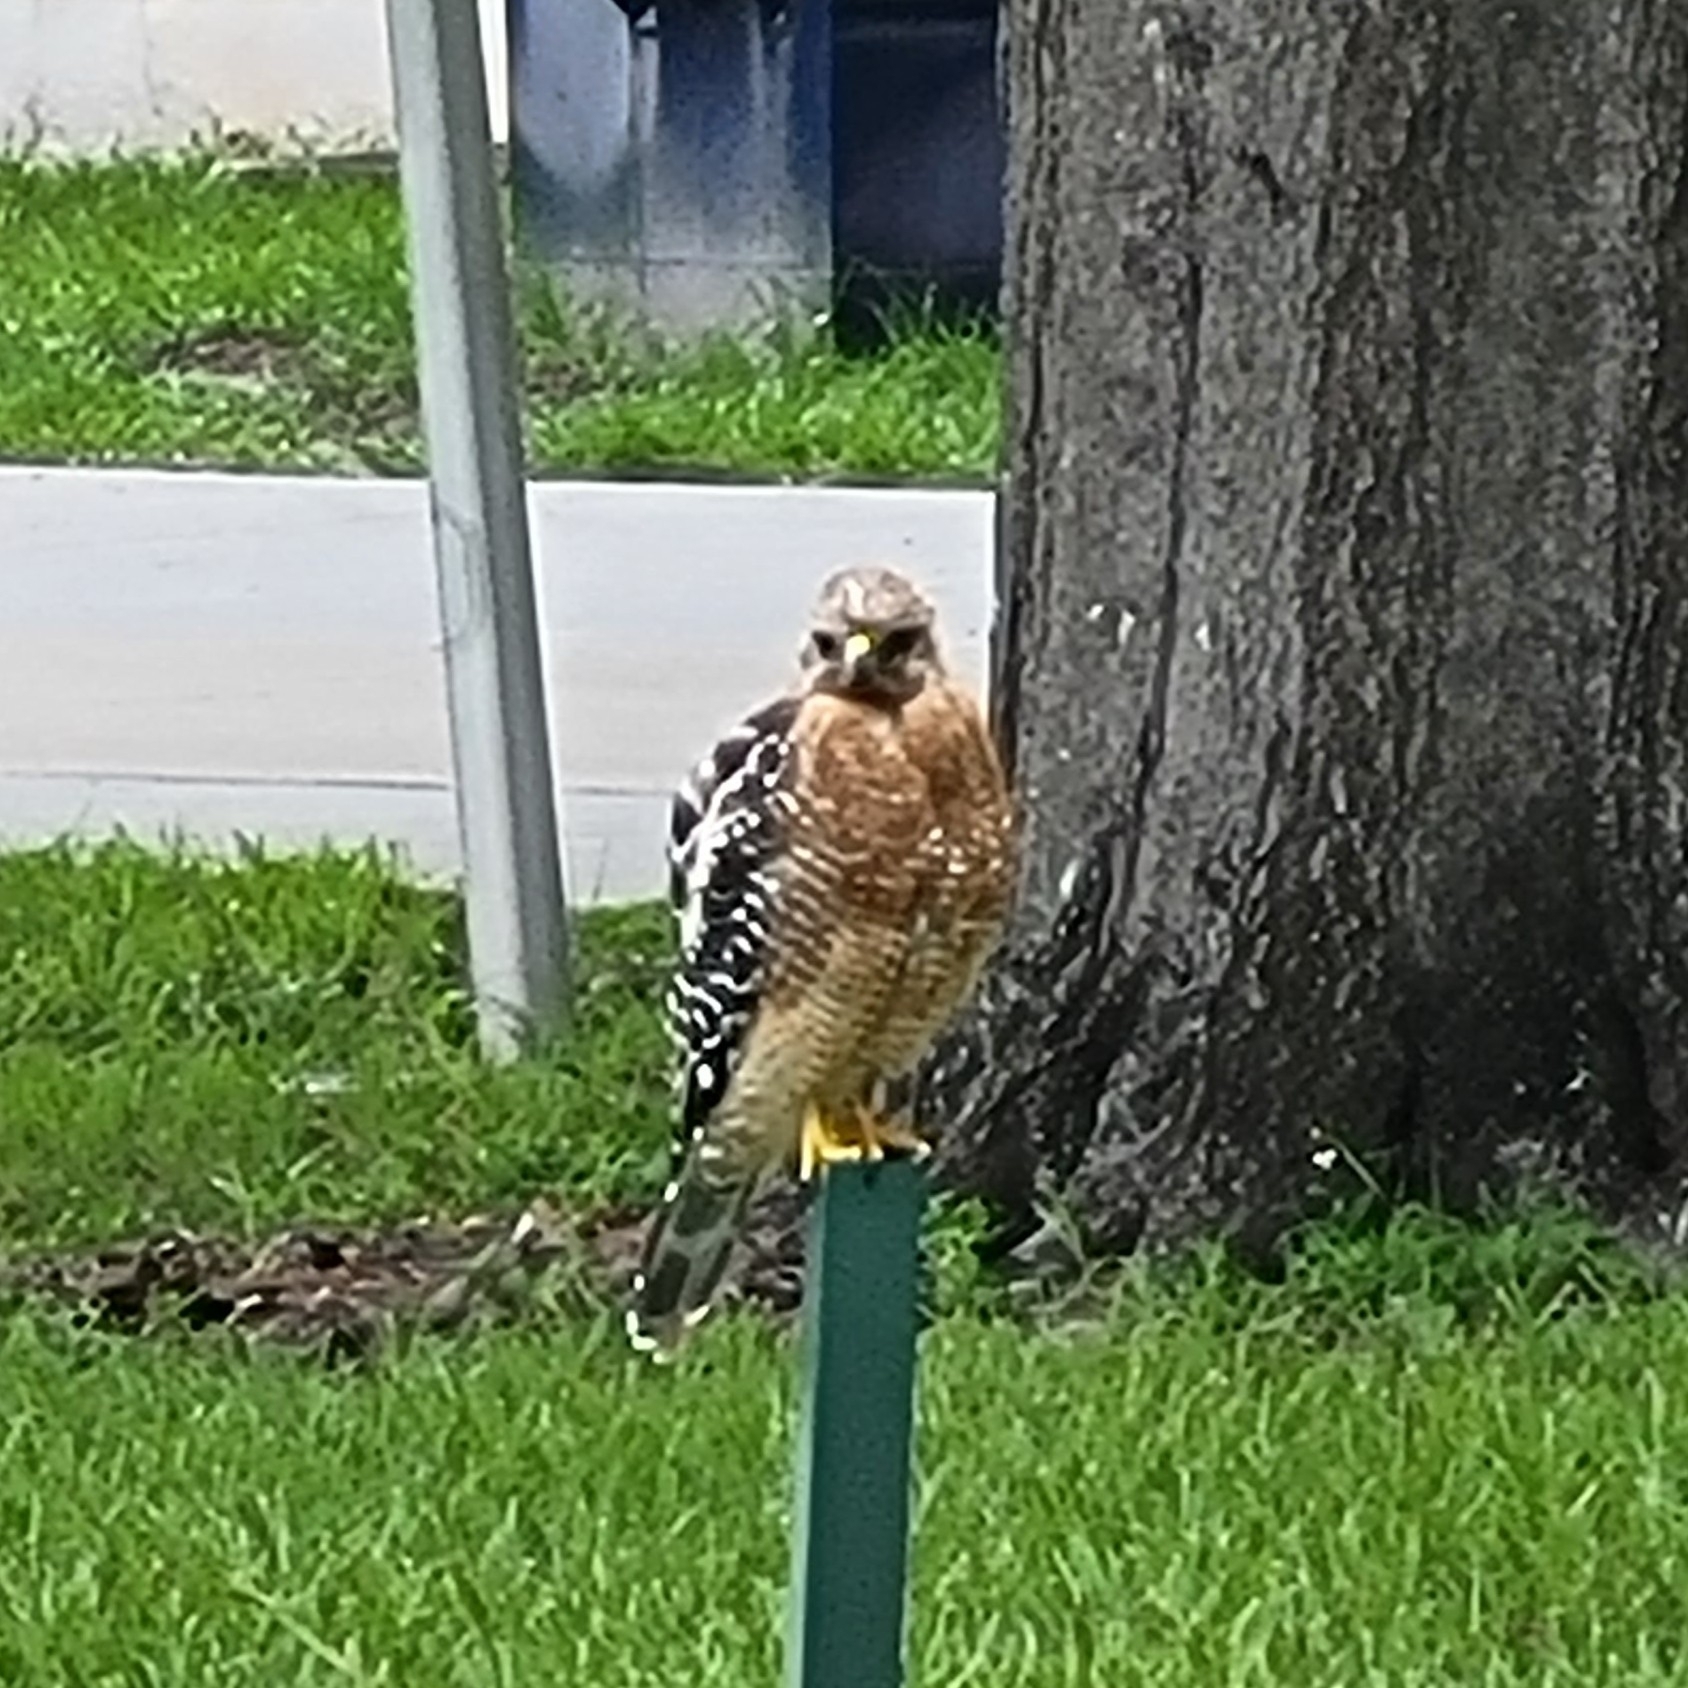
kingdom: Animalia
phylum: Chordata
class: Aves
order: Accipitriformes
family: Accipitridae
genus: Buteo
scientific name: Buteo lineatus
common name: Red-shouldered hawk
